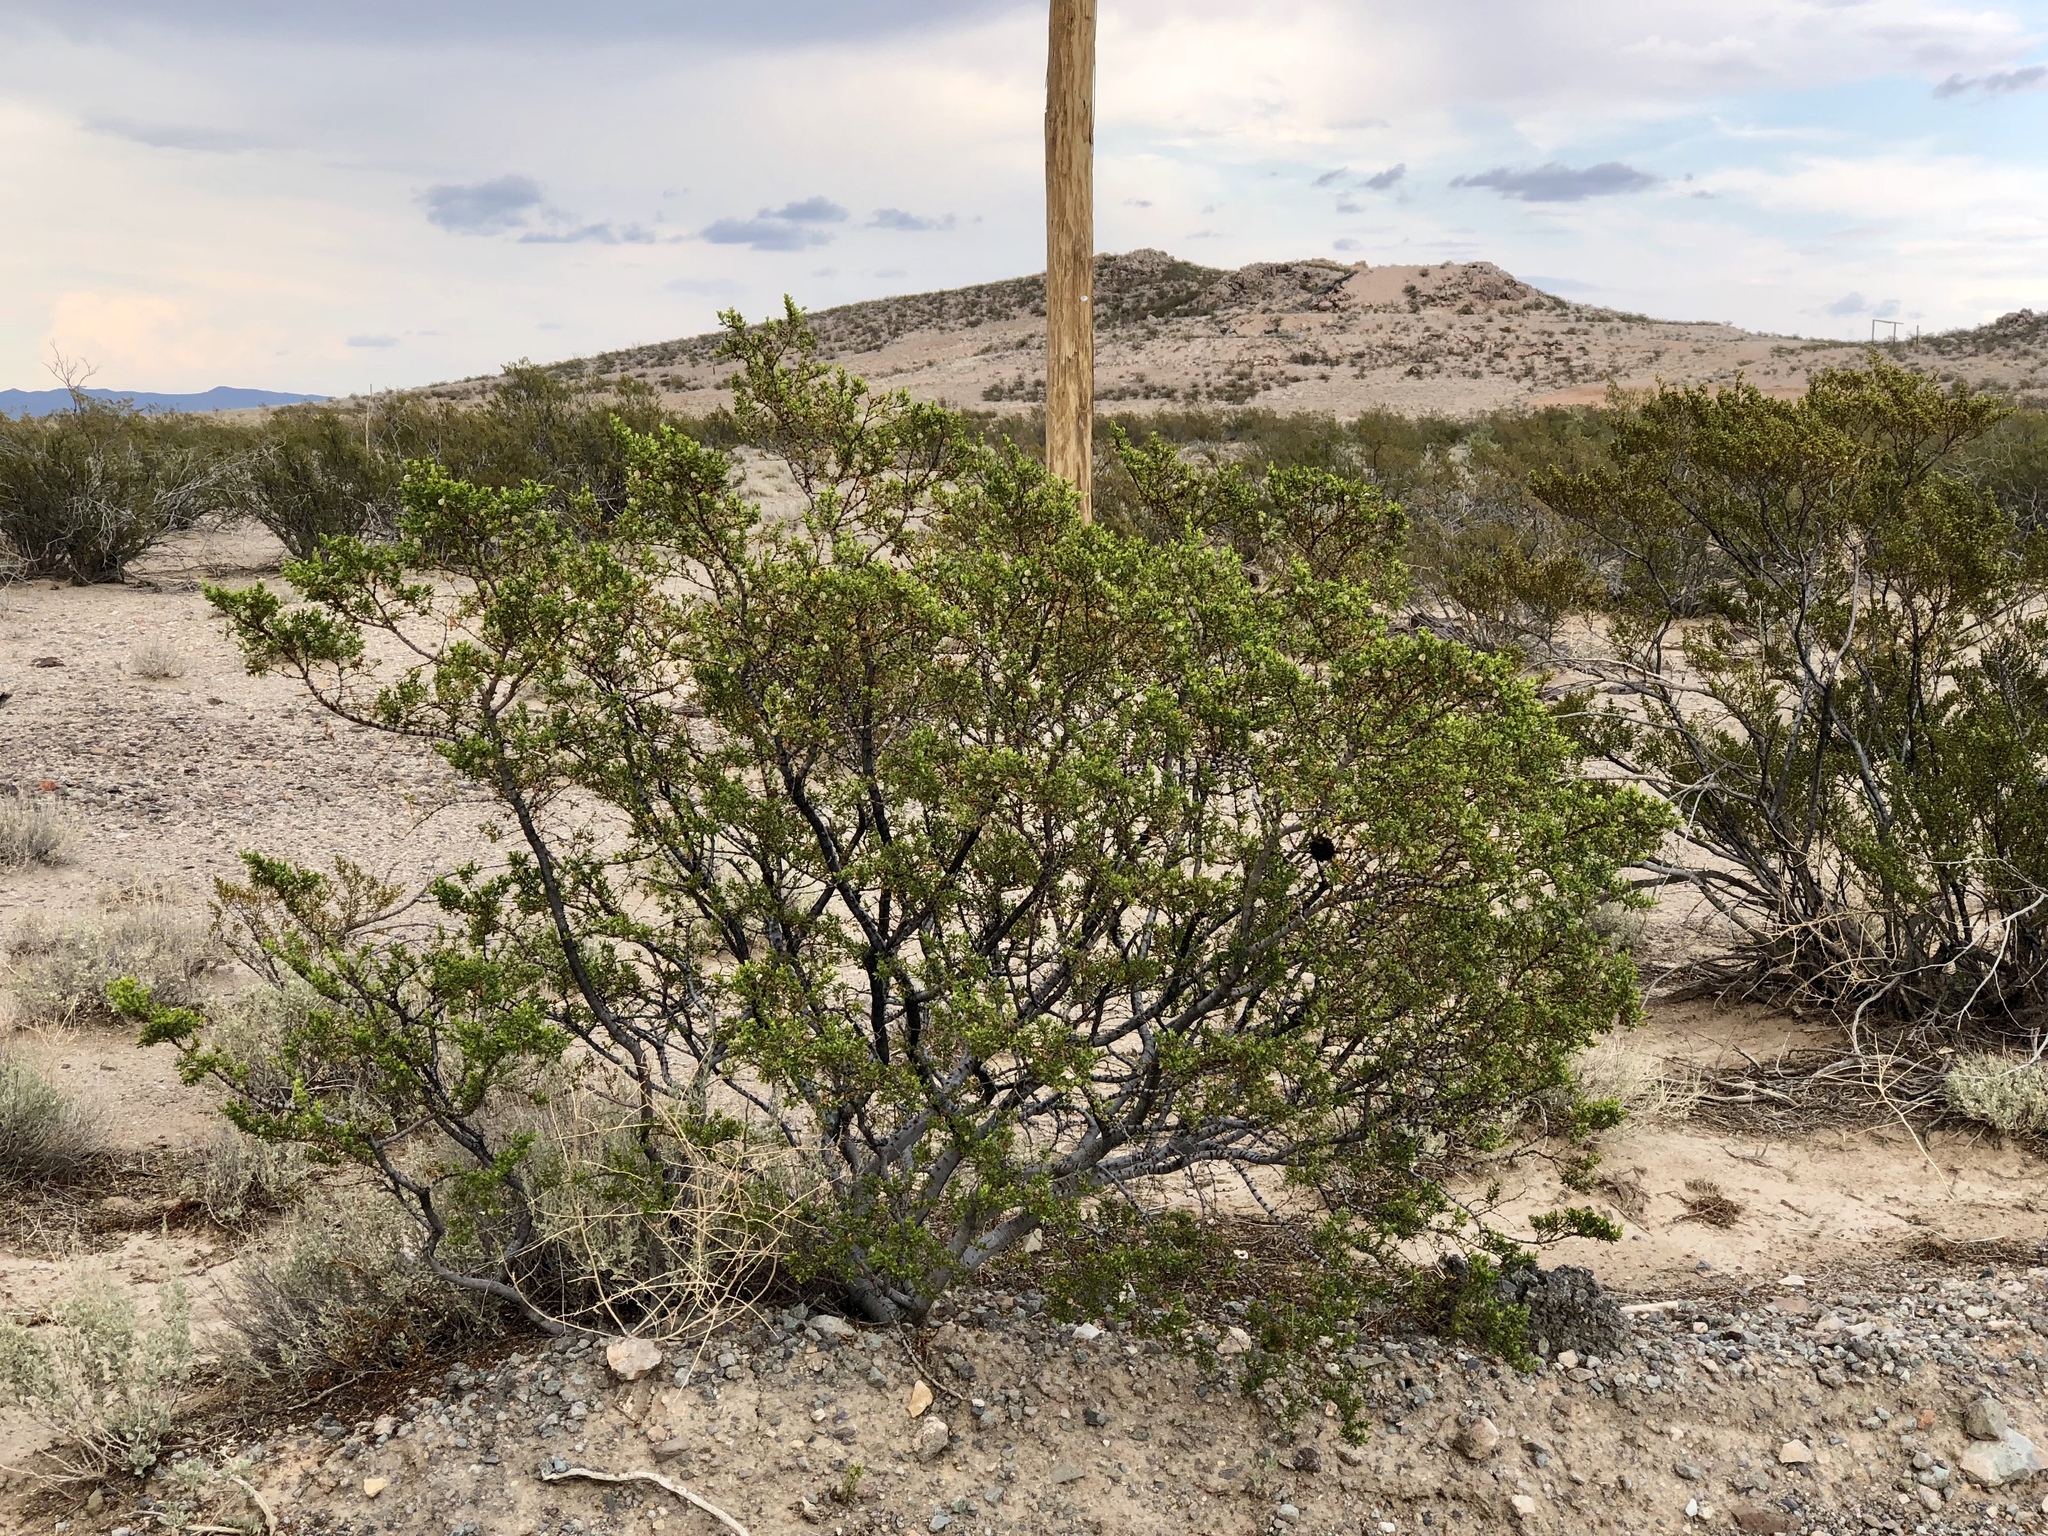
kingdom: Plantae
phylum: Tracheophyta
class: Magnoliopsida
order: Zygophyllales
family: Zygophyllaceae
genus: Larrea
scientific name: Larrea tridentata
